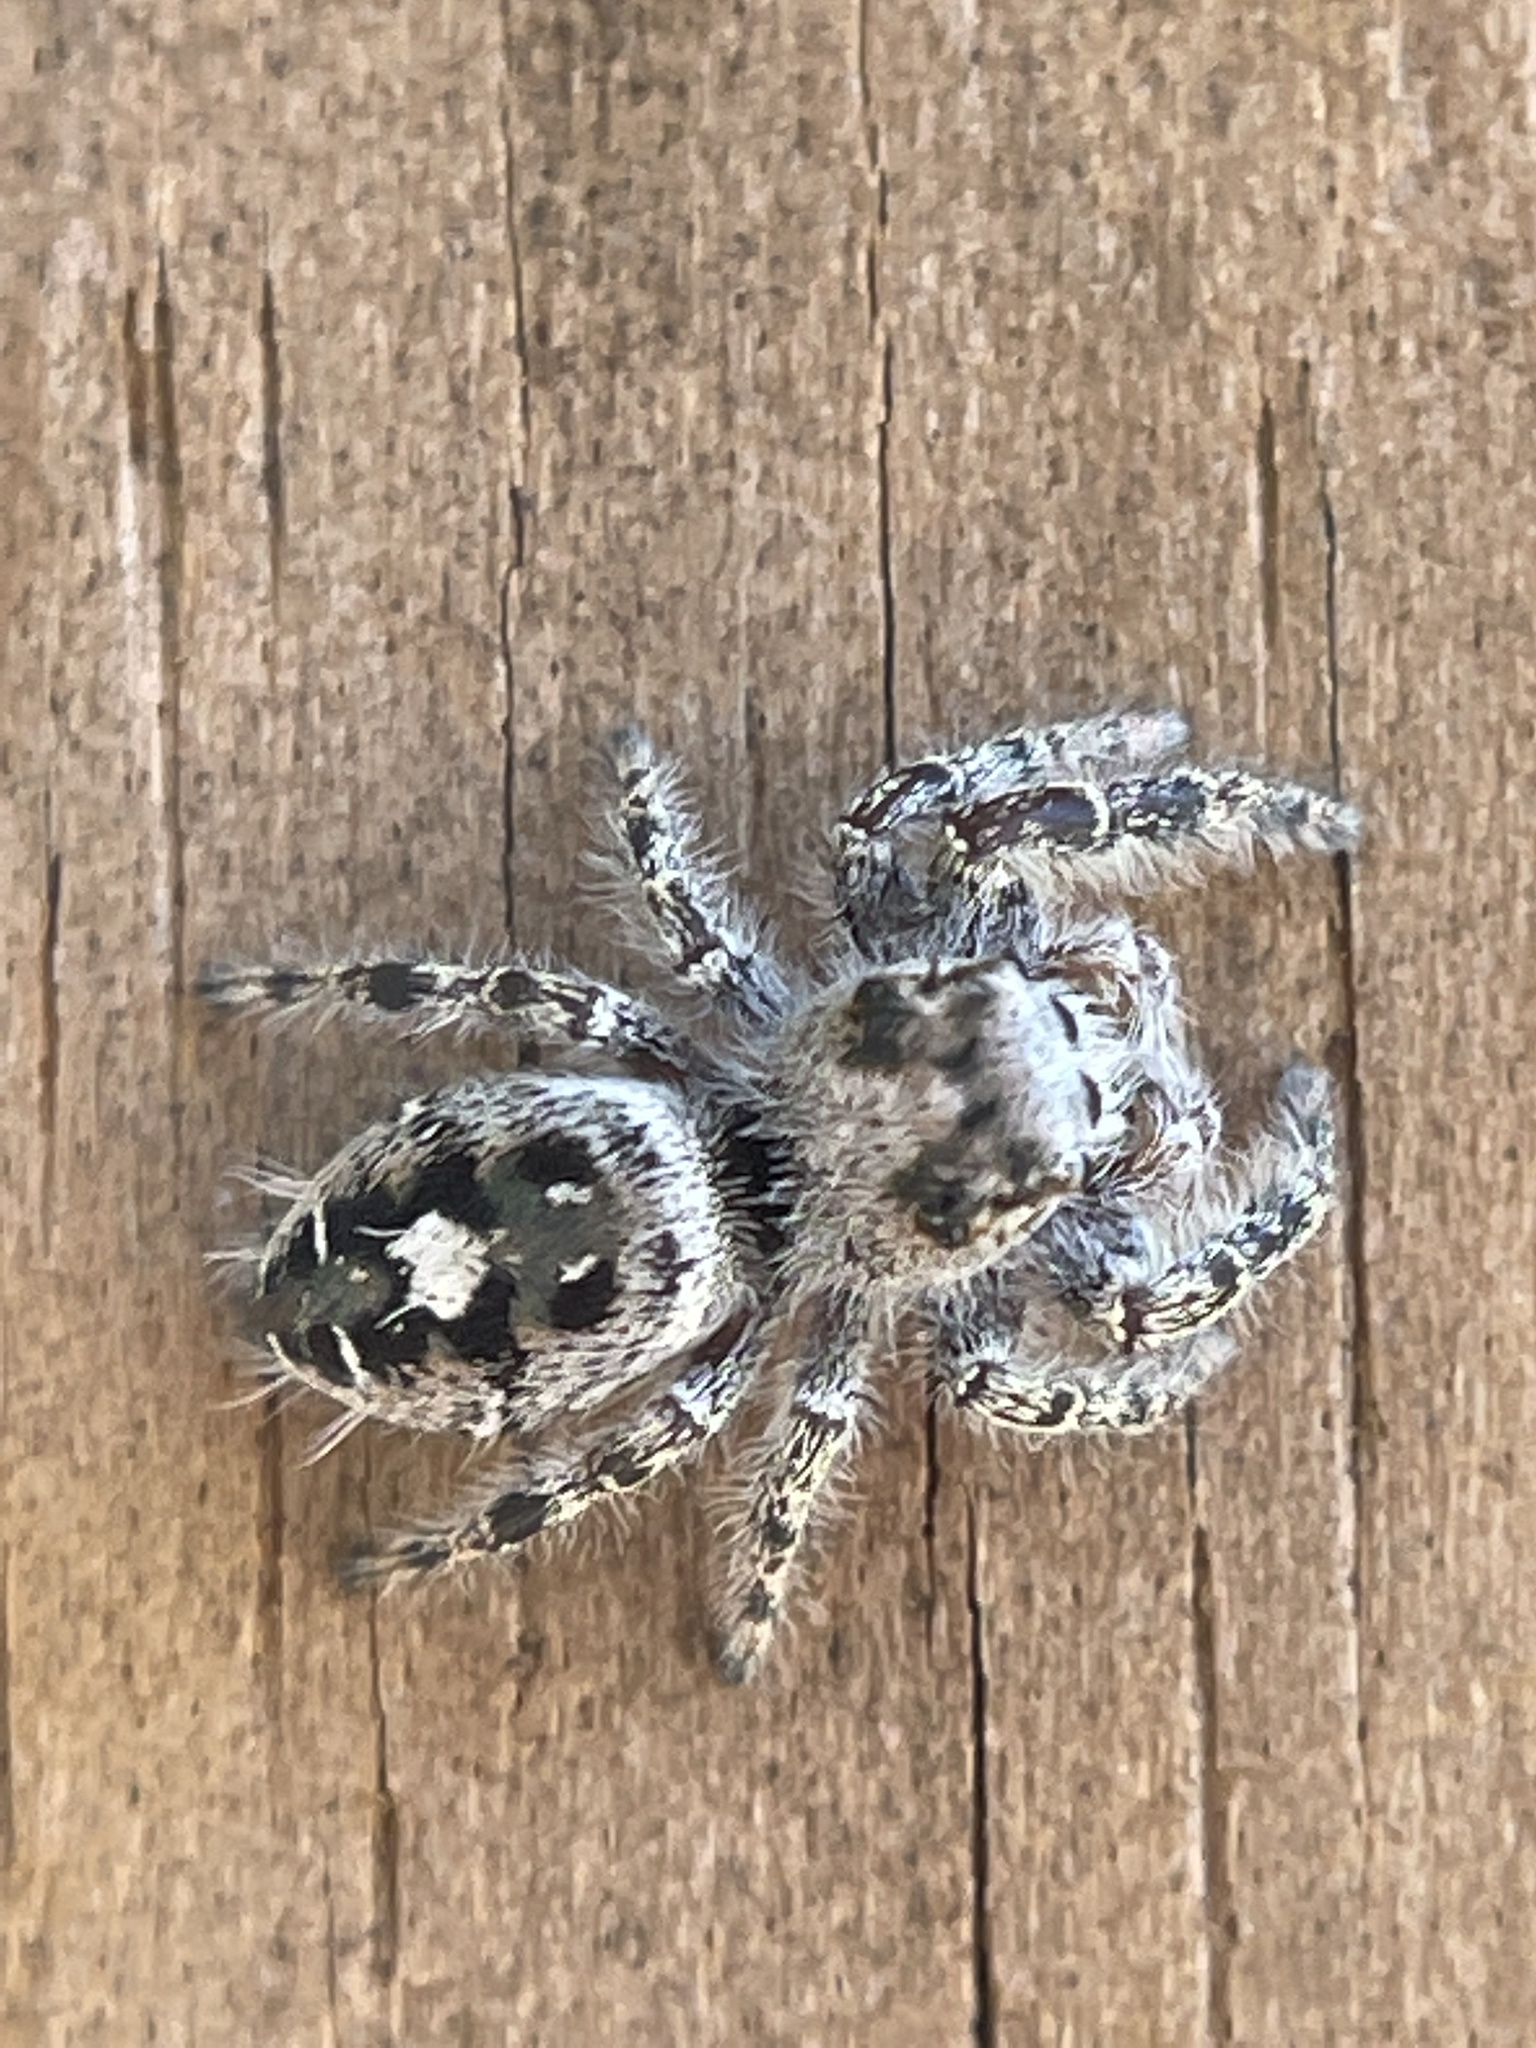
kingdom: Animalia
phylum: Arthropoda
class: Arachnida
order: Araneae
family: Salticidae
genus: Phidippus
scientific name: Phidippus putnami
